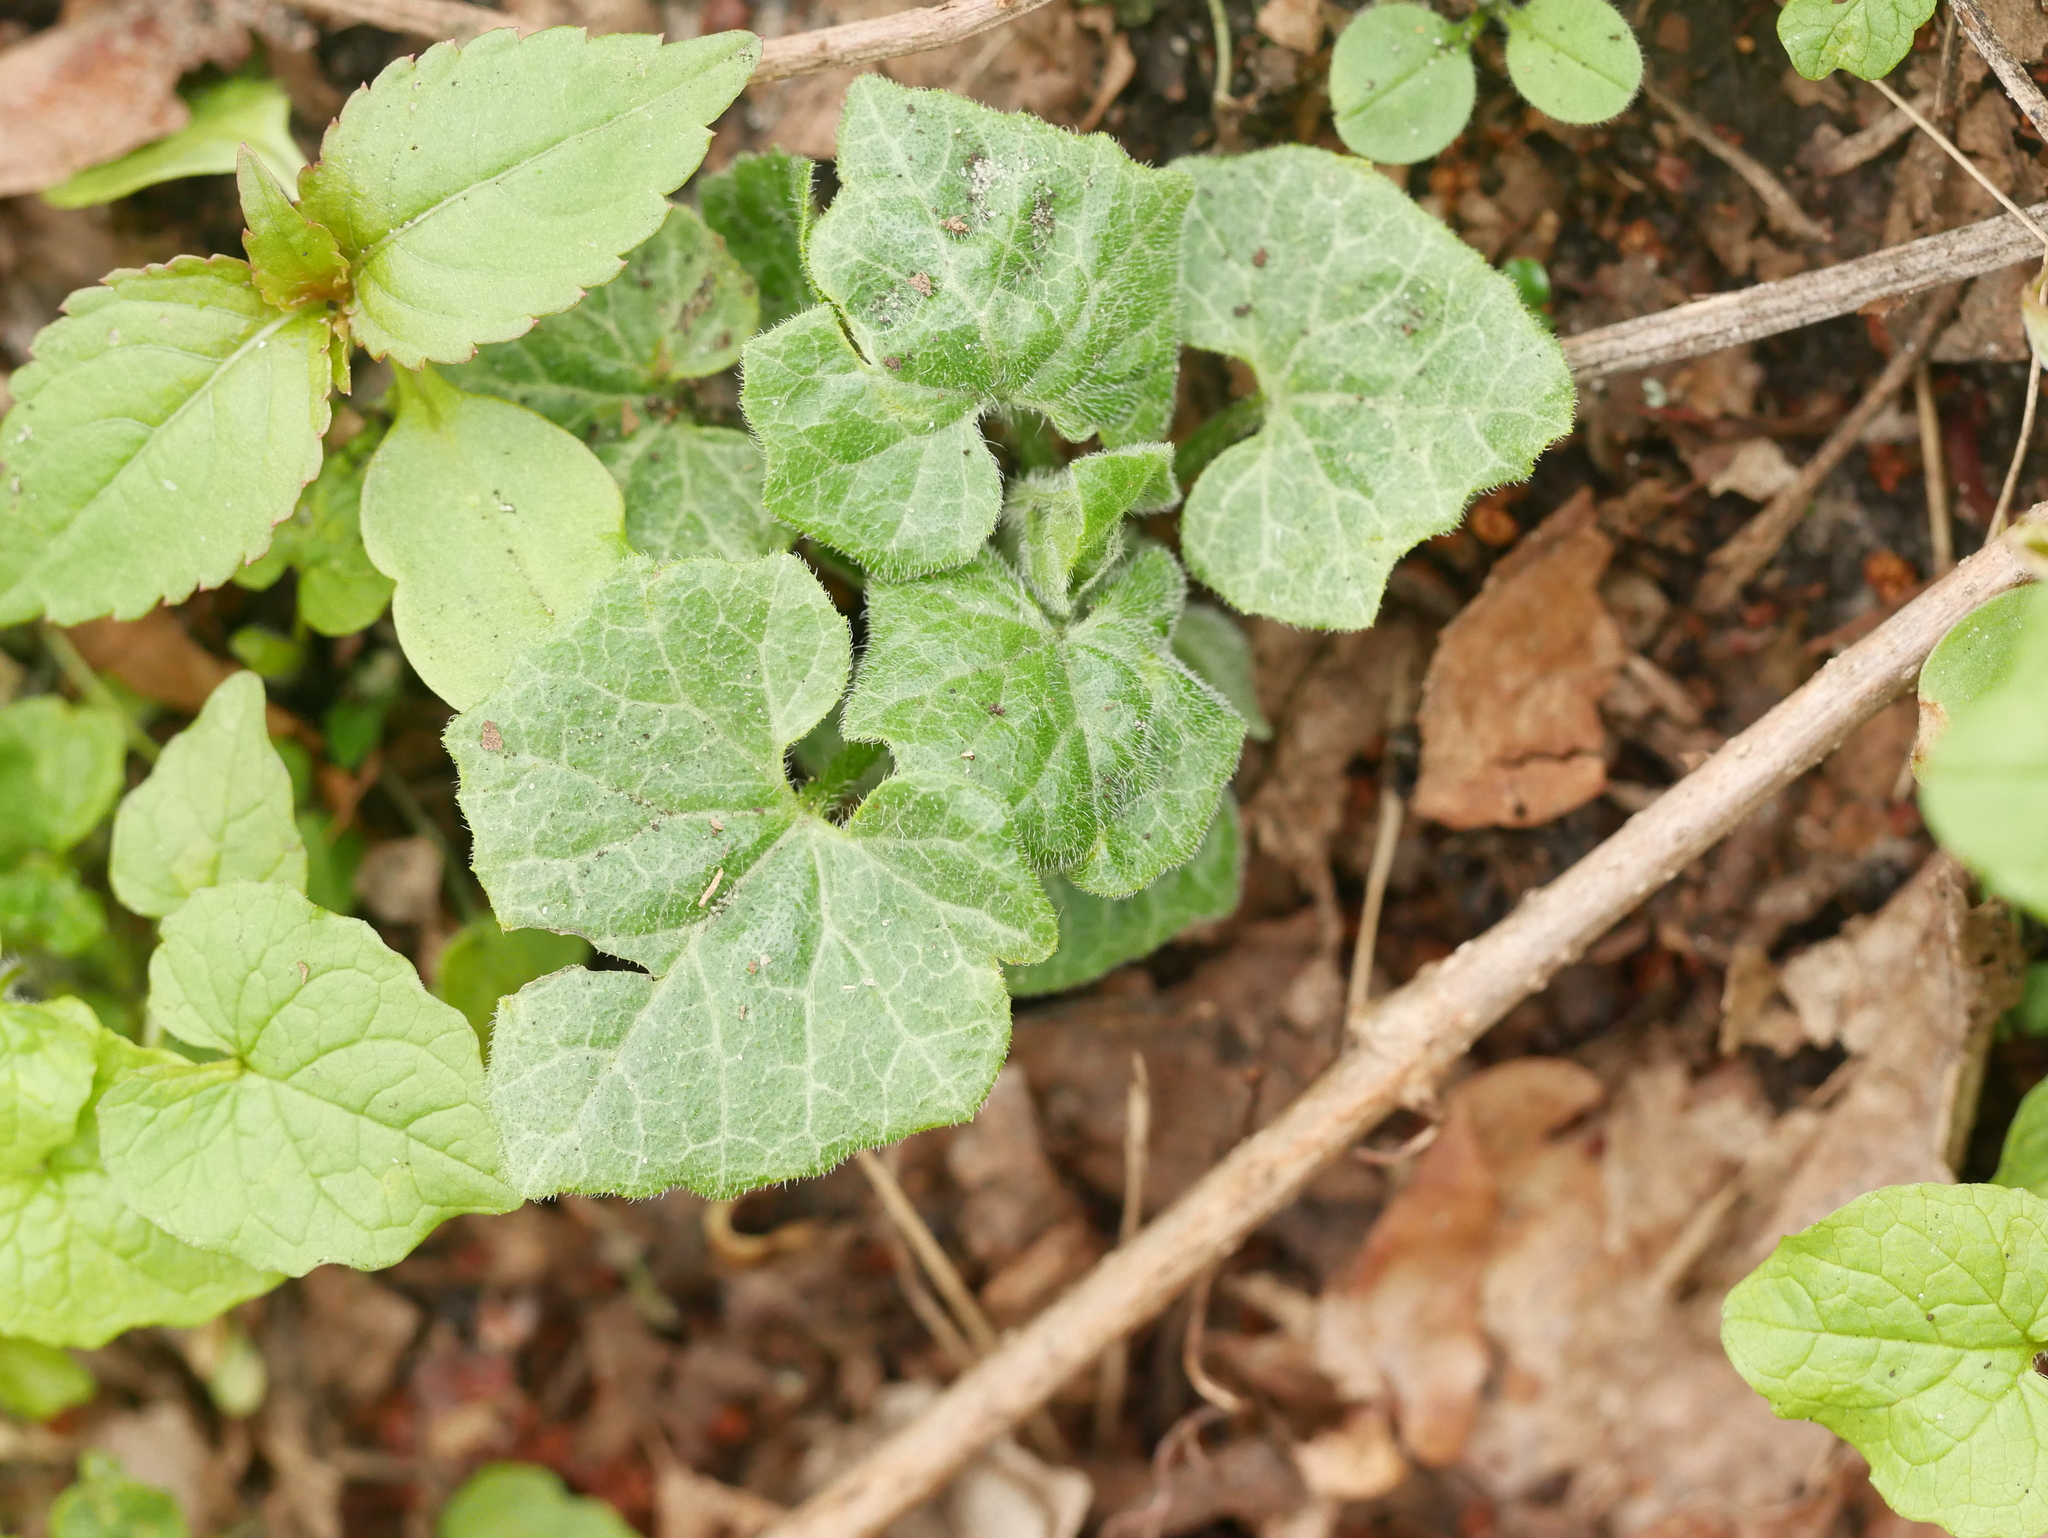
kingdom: Plantae
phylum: Tracheophyta
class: Magnoliopsida
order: Cucurbitales
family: Cucurbitaceae
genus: Bryonia
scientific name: Bryonia cretica
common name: Cretan bryony
